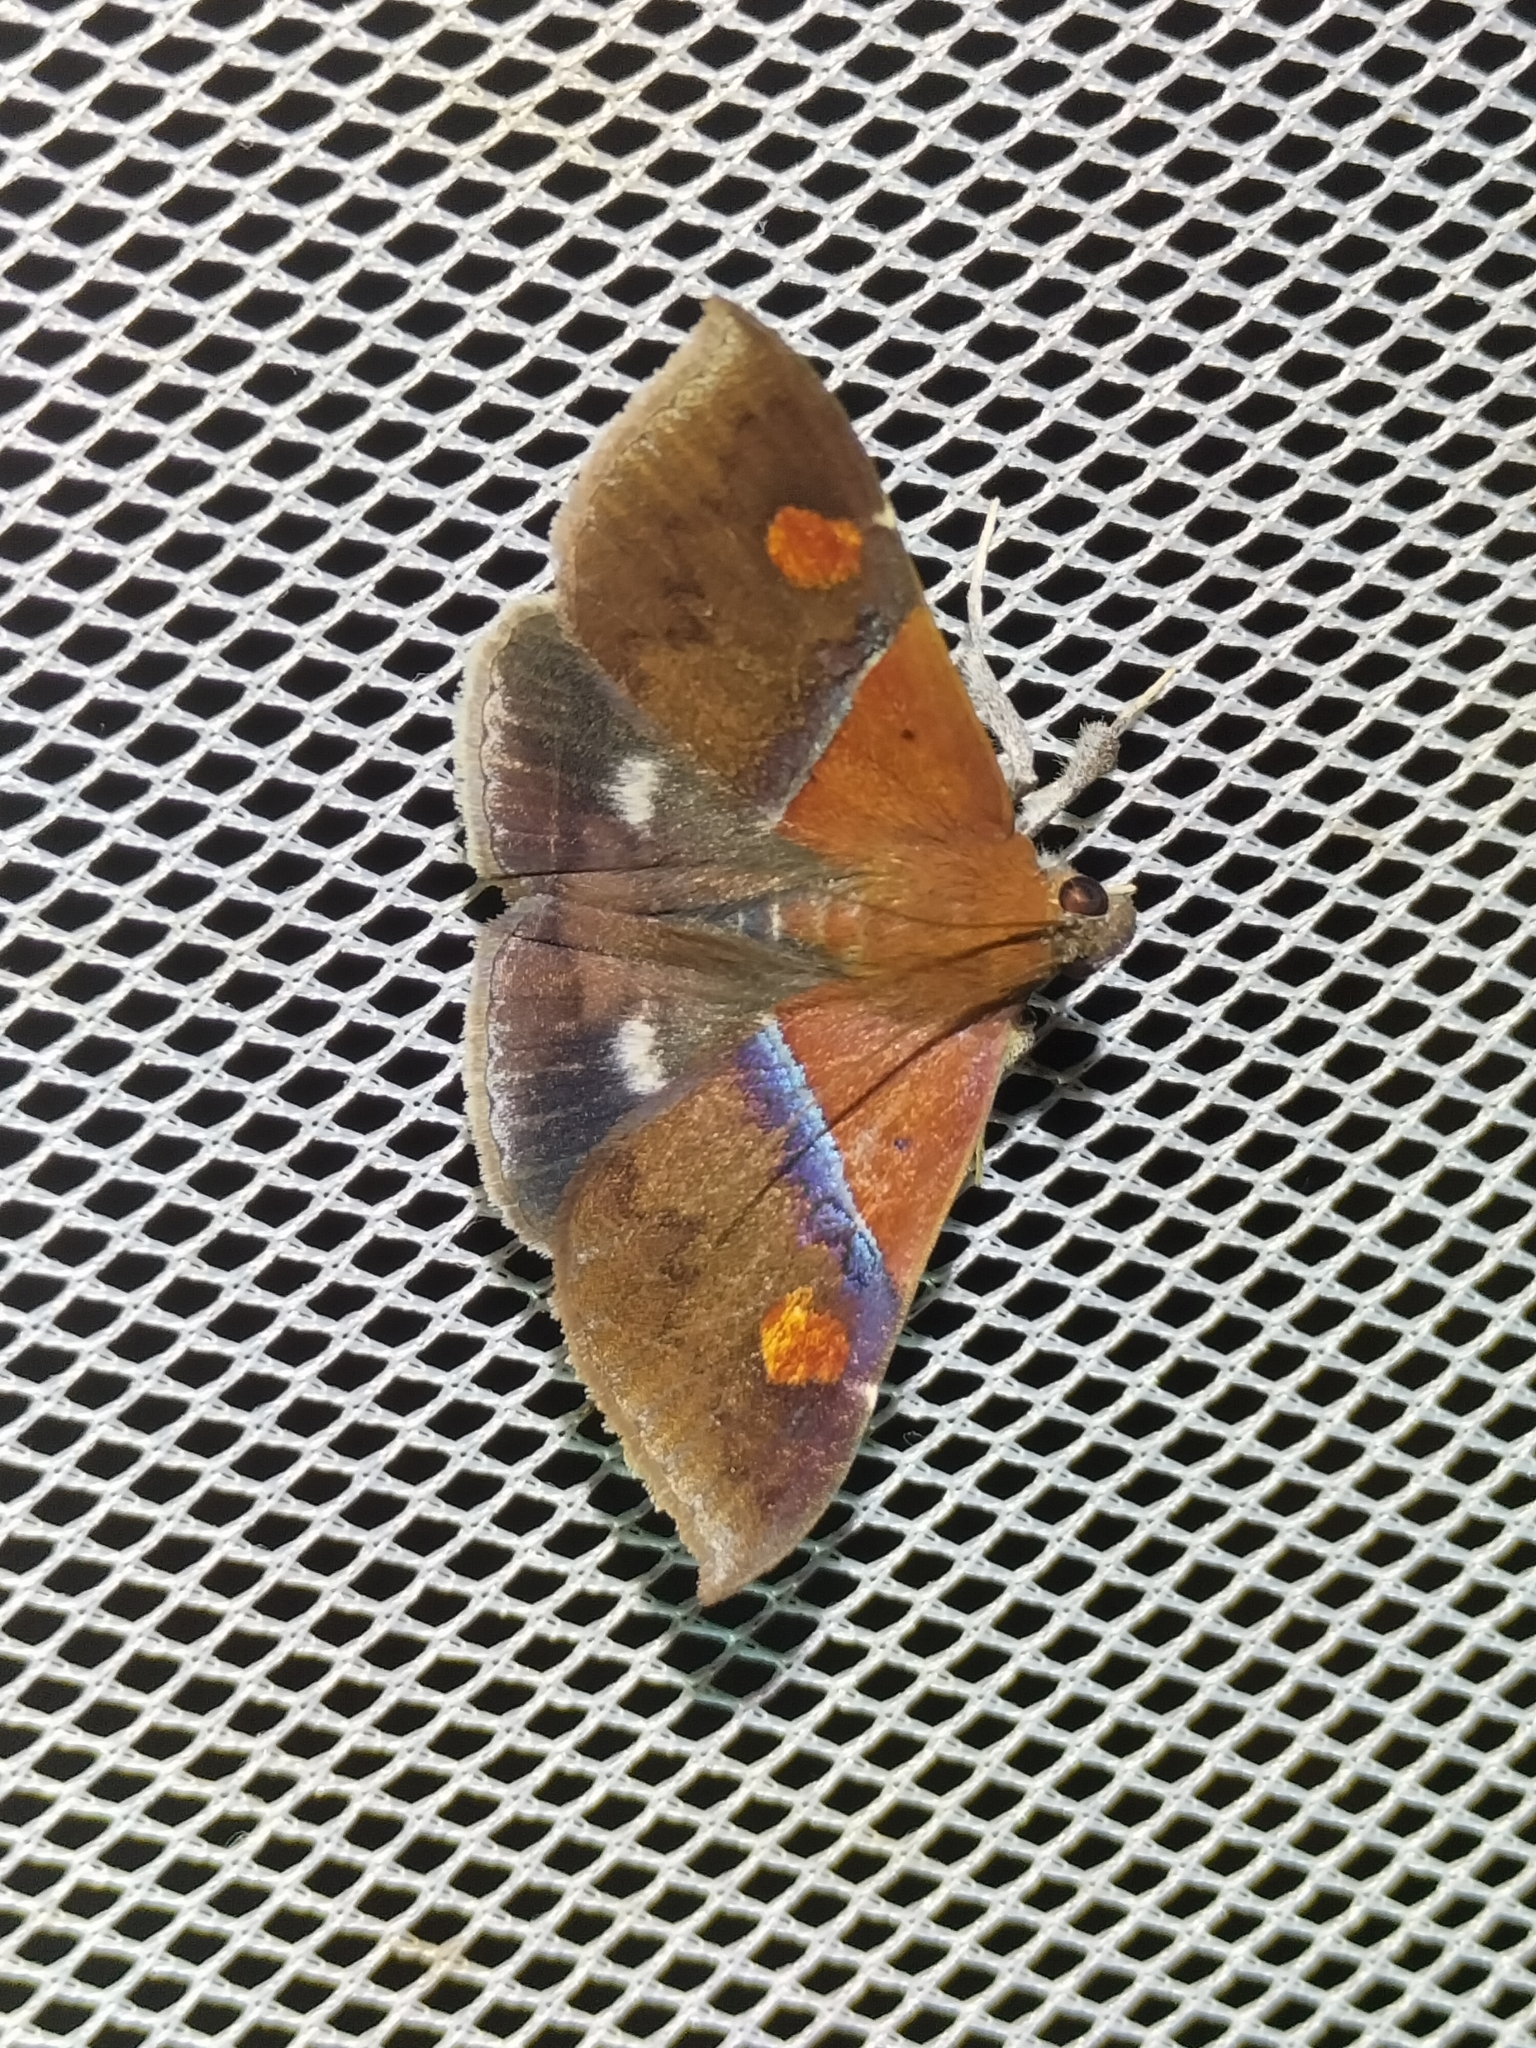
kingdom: Animalia
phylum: Arthropoda
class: Insecta
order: Lepidoptera
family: Erebidae
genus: Sympis
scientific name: Sympis rufibasis
